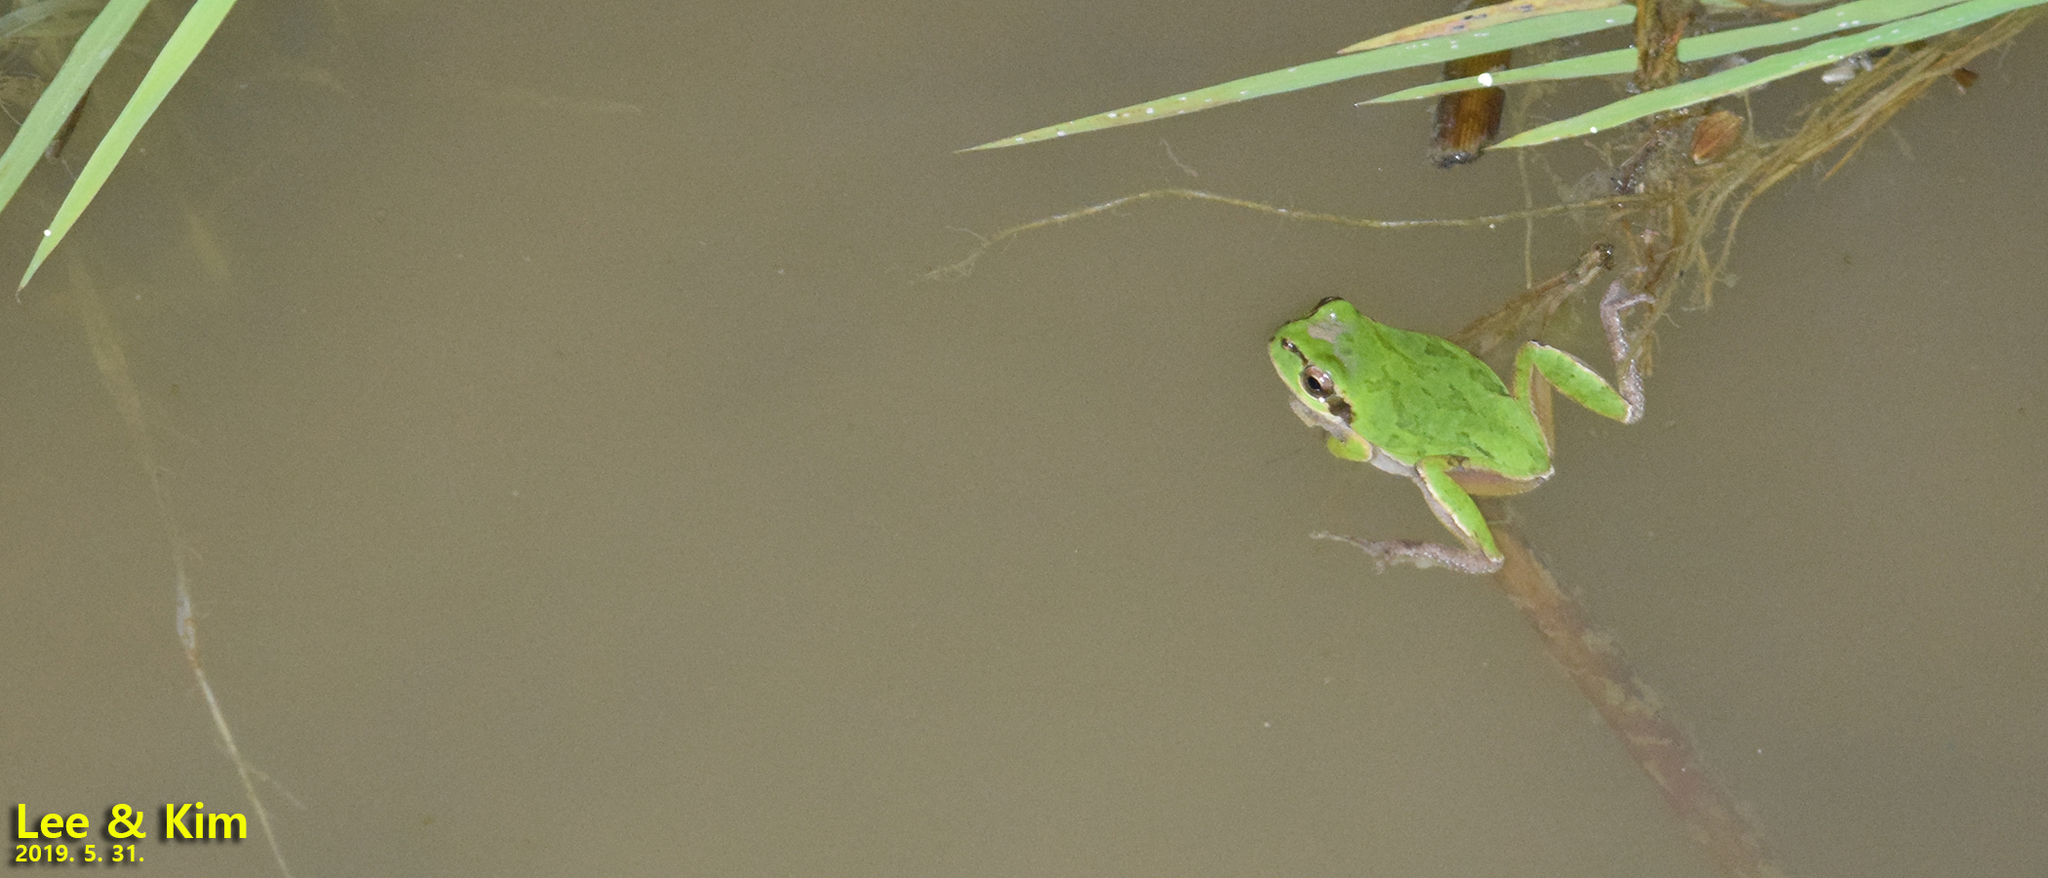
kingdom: Animalia
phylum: Chordata
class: Amphibia
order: Anura
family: Hylidae
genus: Dryophytes
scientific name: Dryophytes japonicus
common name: Japanese treefrog
